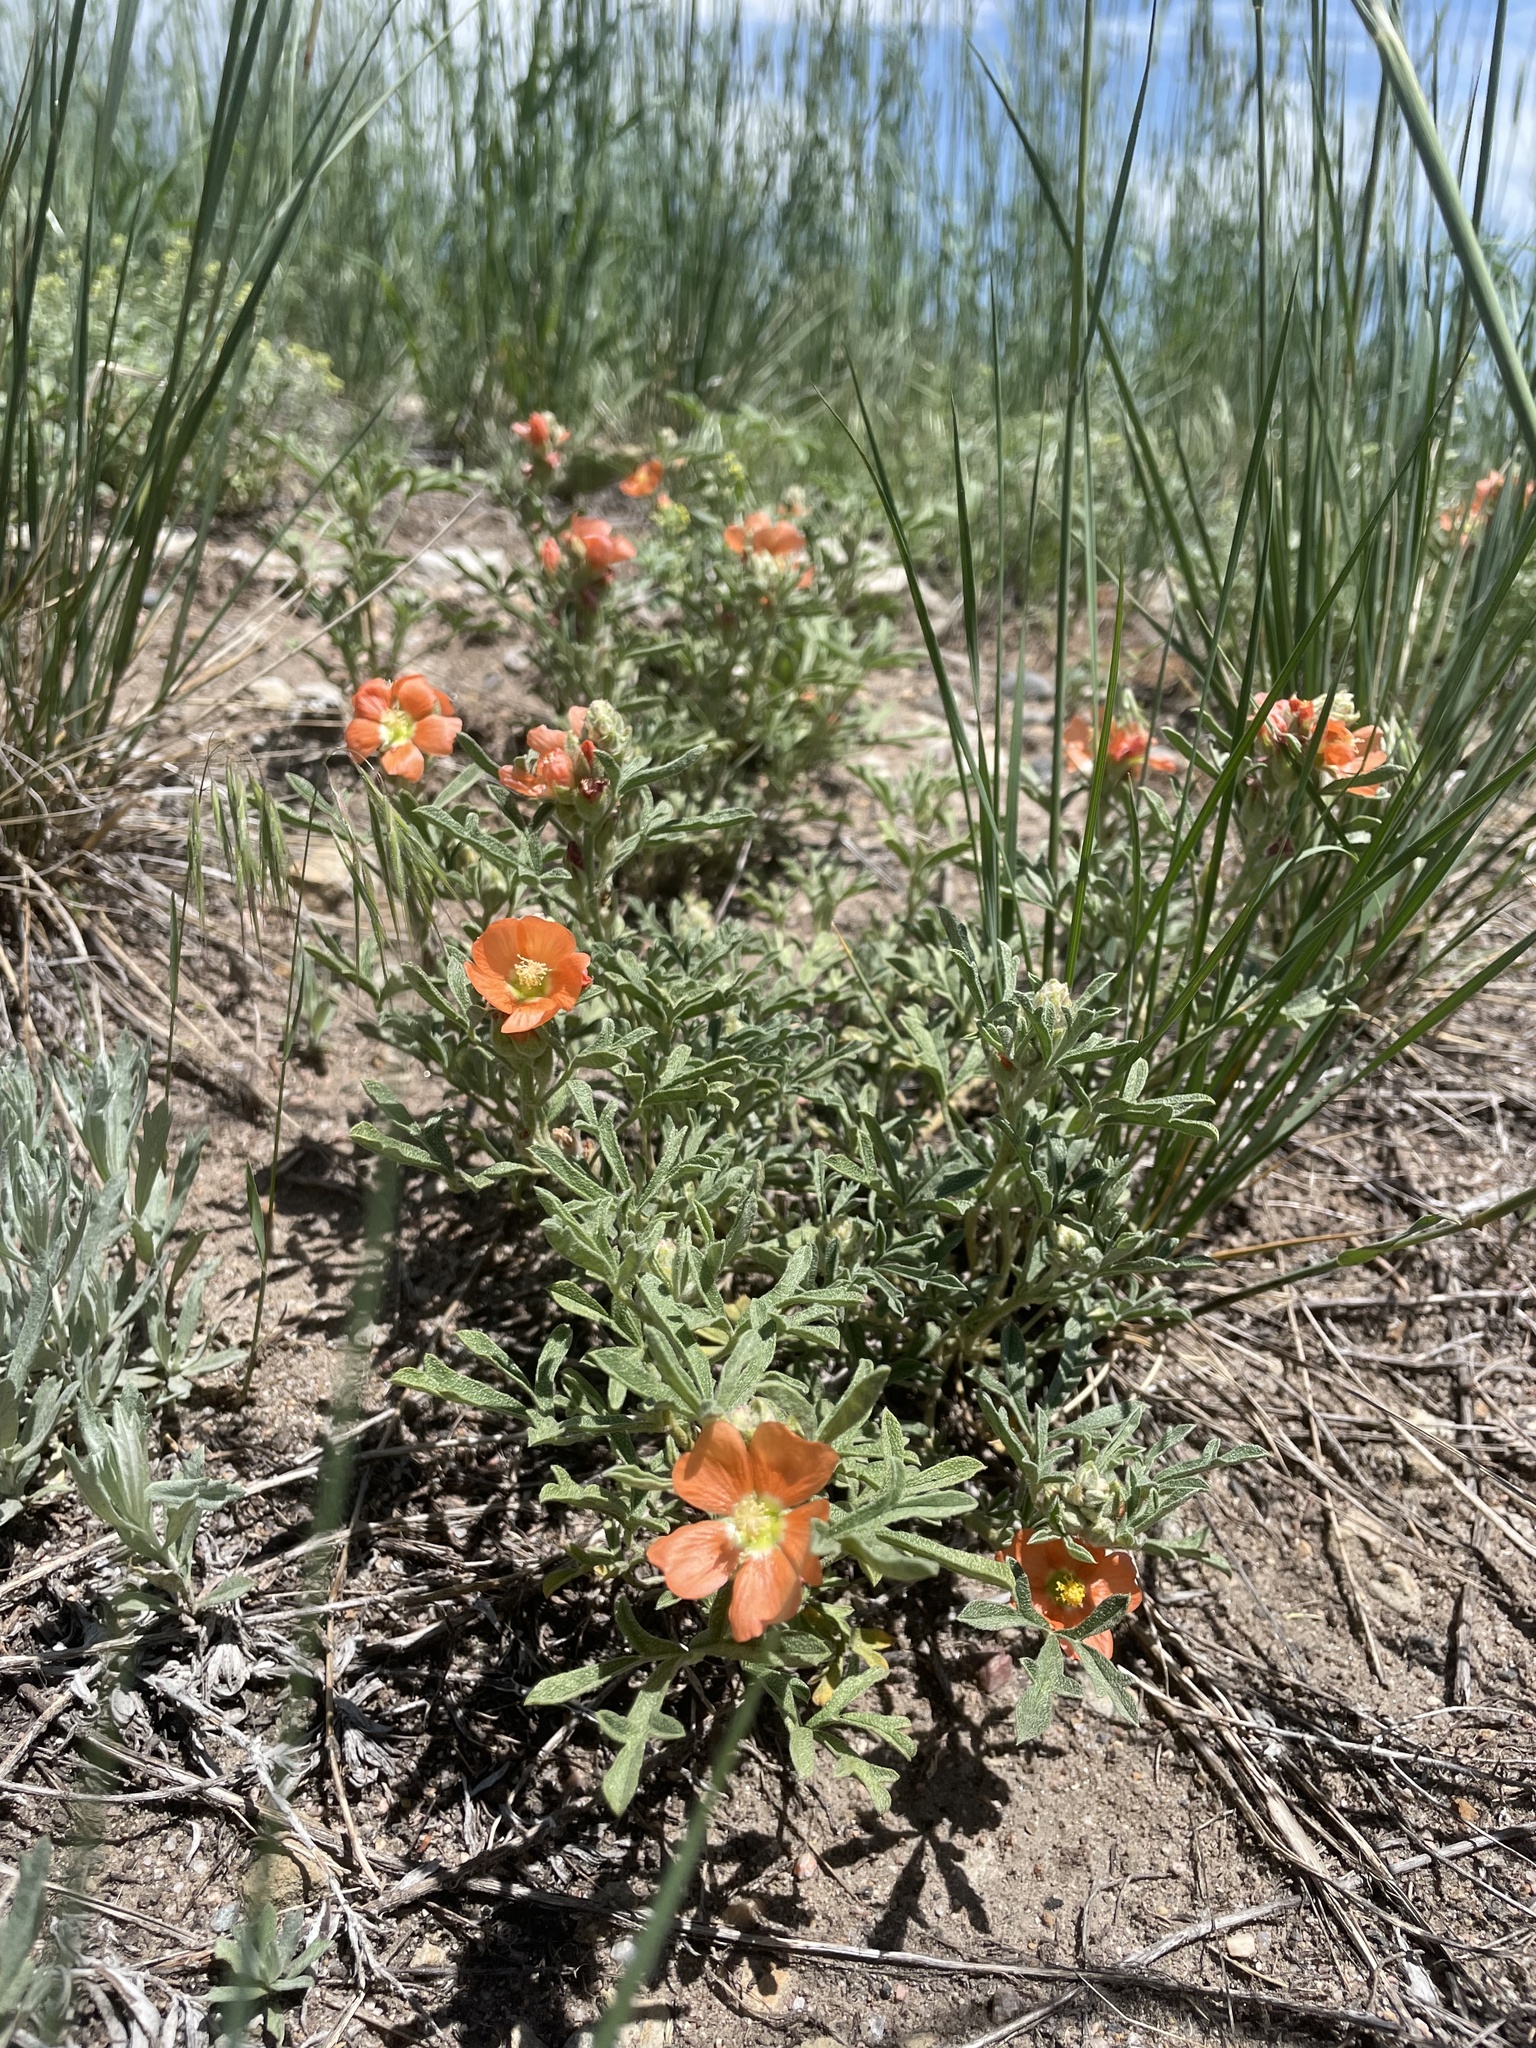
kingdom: Plantae
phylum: Tracheophyta
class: Magnoliopsida
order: Malvales
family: Malvaceae
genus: Sphaeralcea
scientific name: Sphaeralcea coccinea
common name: Moss-rose
